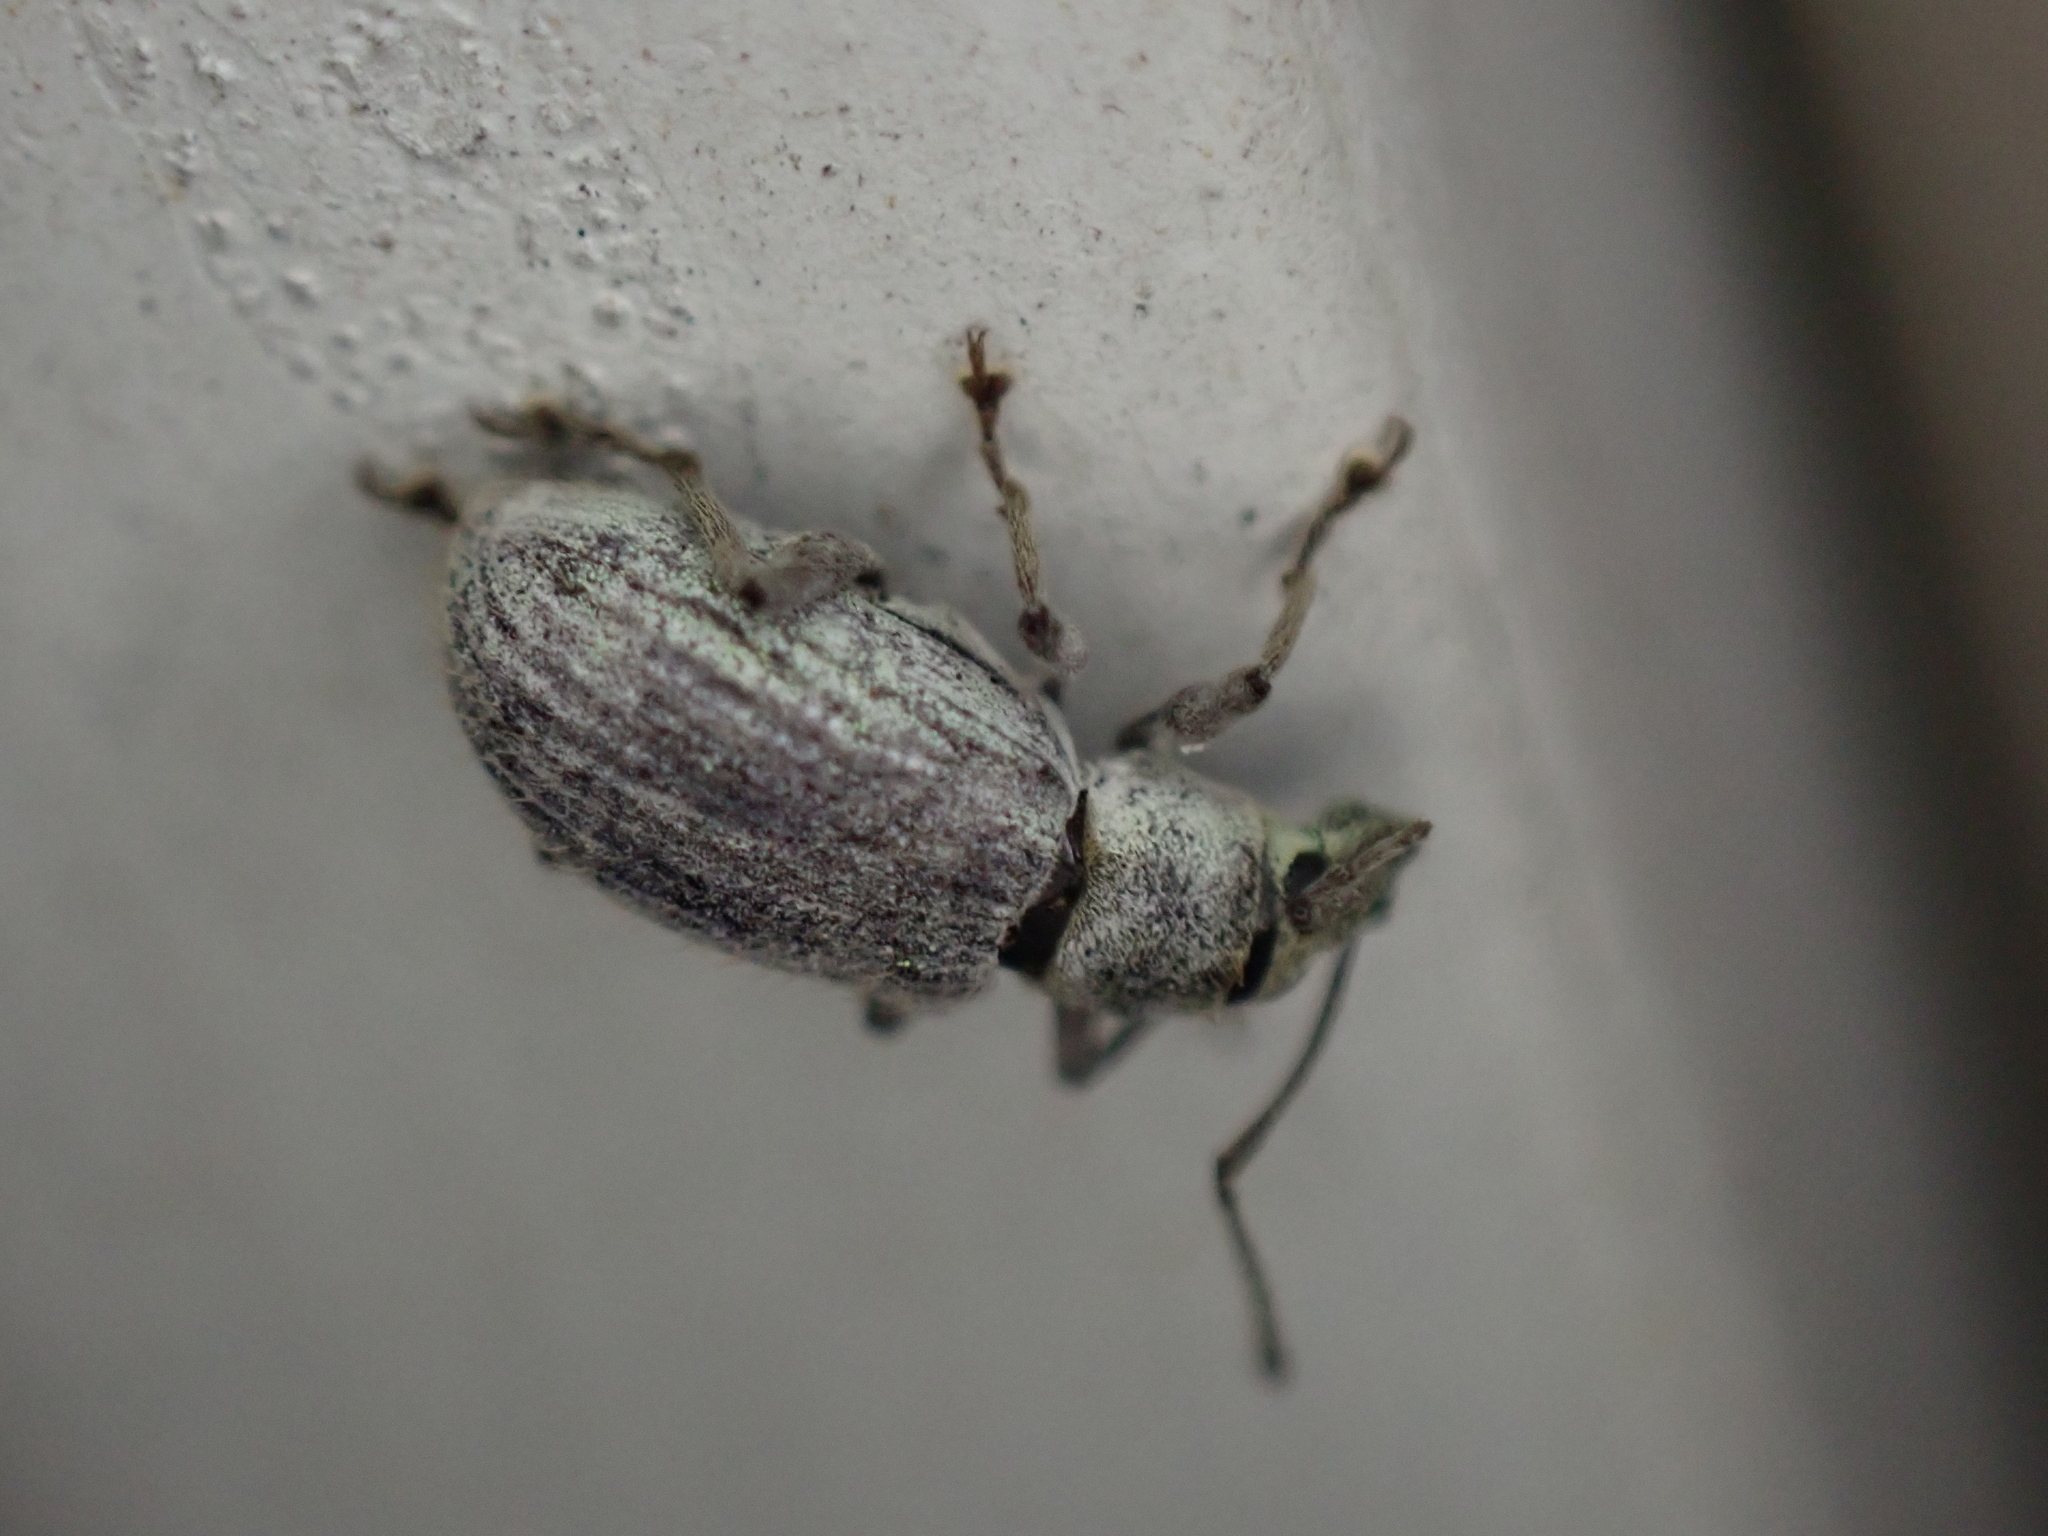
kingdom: Animalia
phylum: Arthropoda
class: Insecta
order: Coleoptera
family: Curculionidae
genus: Cyrtepistomus
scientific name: Cyrtepistomus castaneus
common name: Weevil
